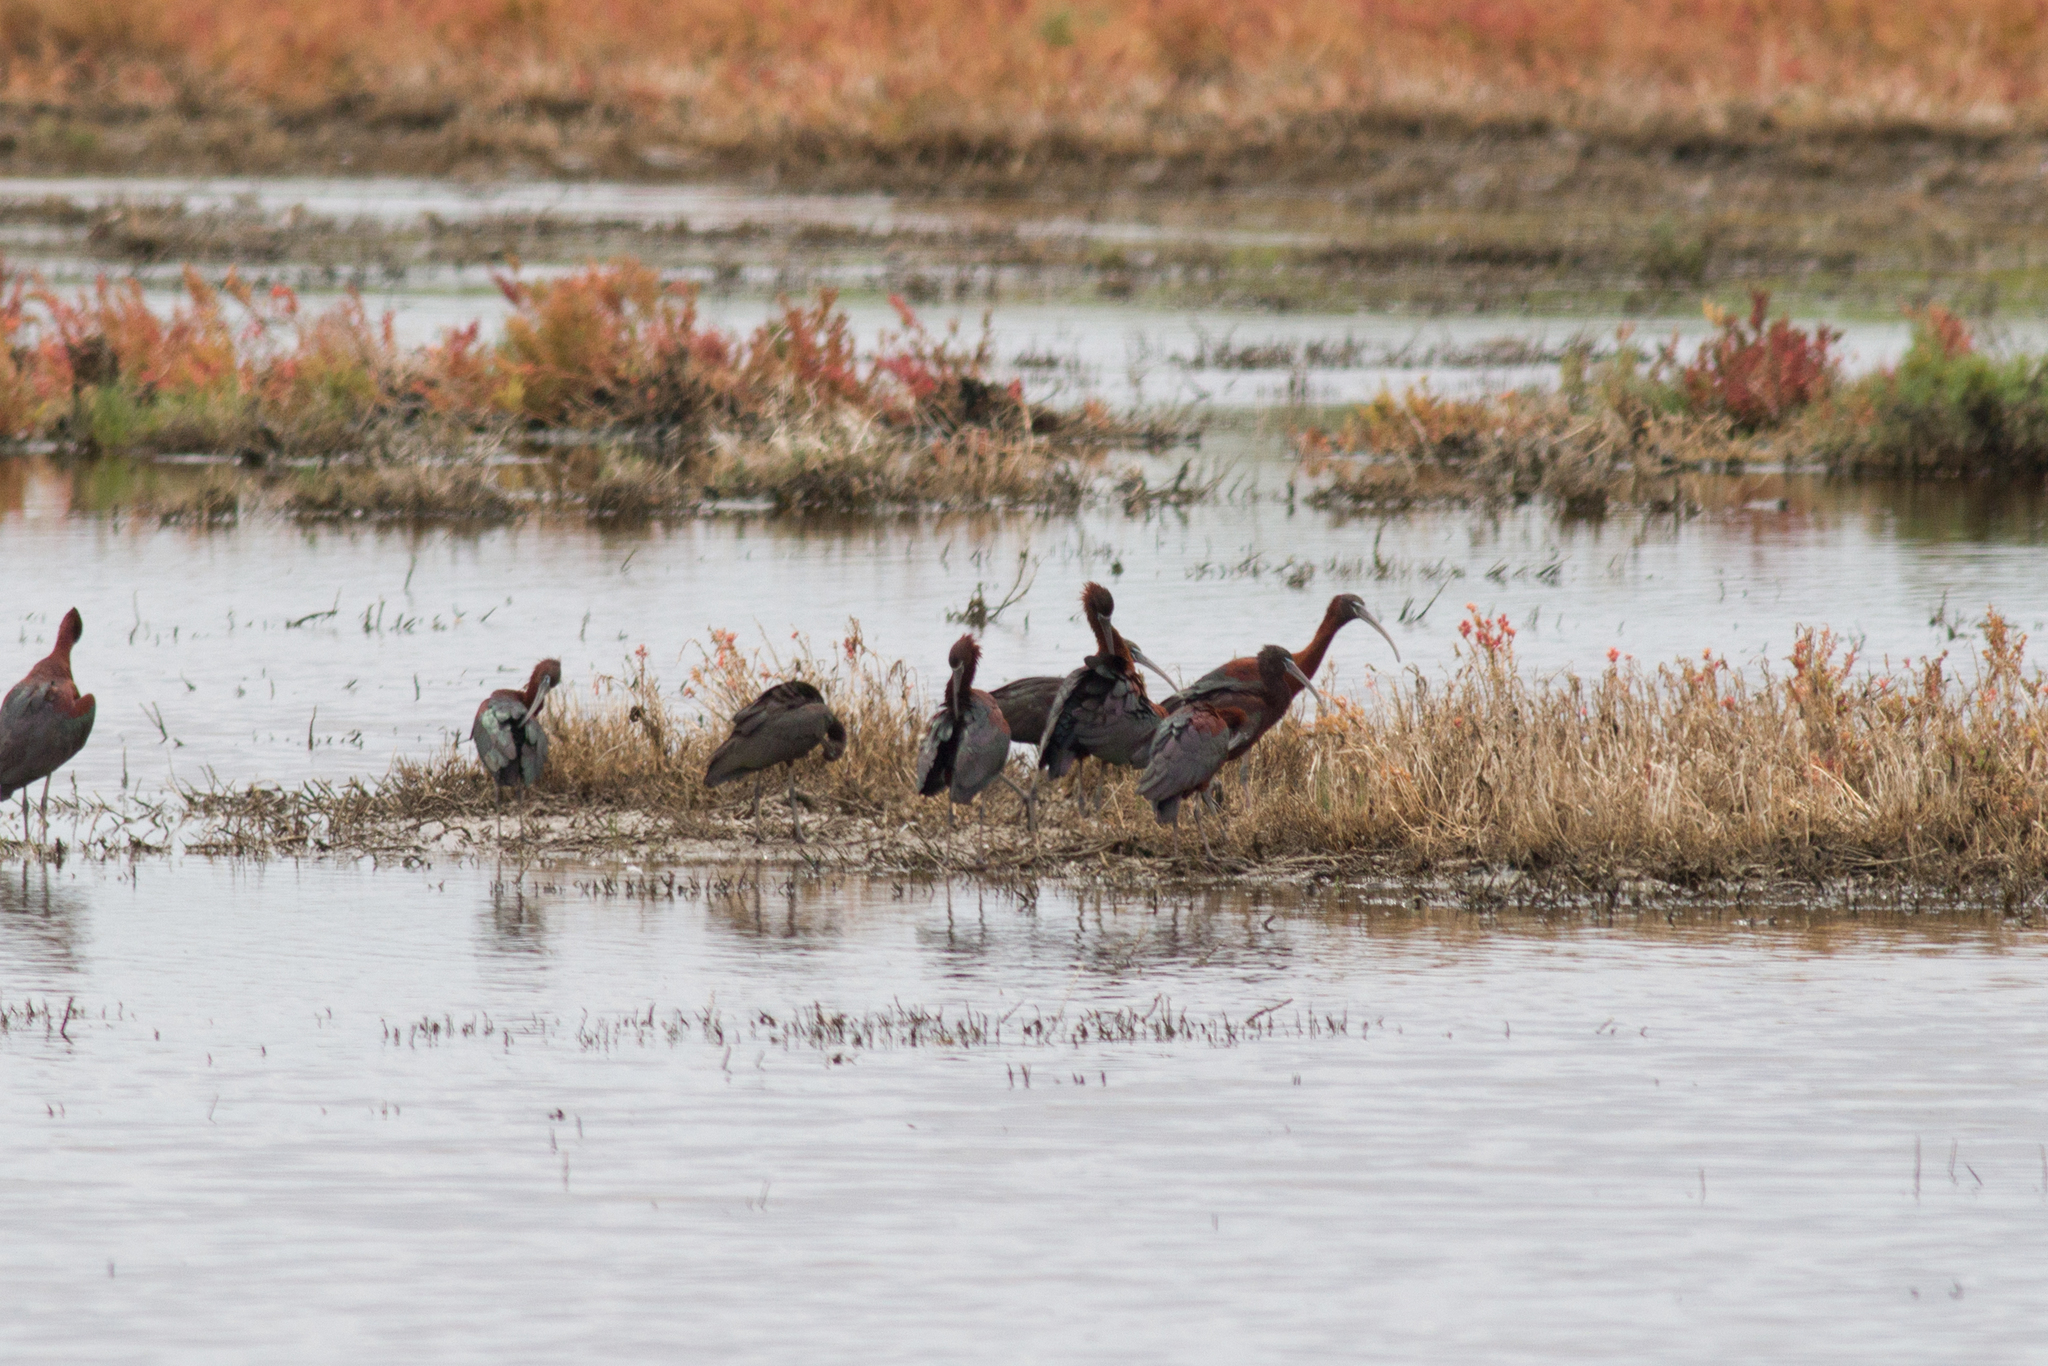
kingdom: Animalia
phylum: Chordata
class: Aves
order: Pelecaniformes
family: Threskiornithidae
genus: Plegadis
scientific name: Plegadis falcinellus
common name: Glossy ibis
